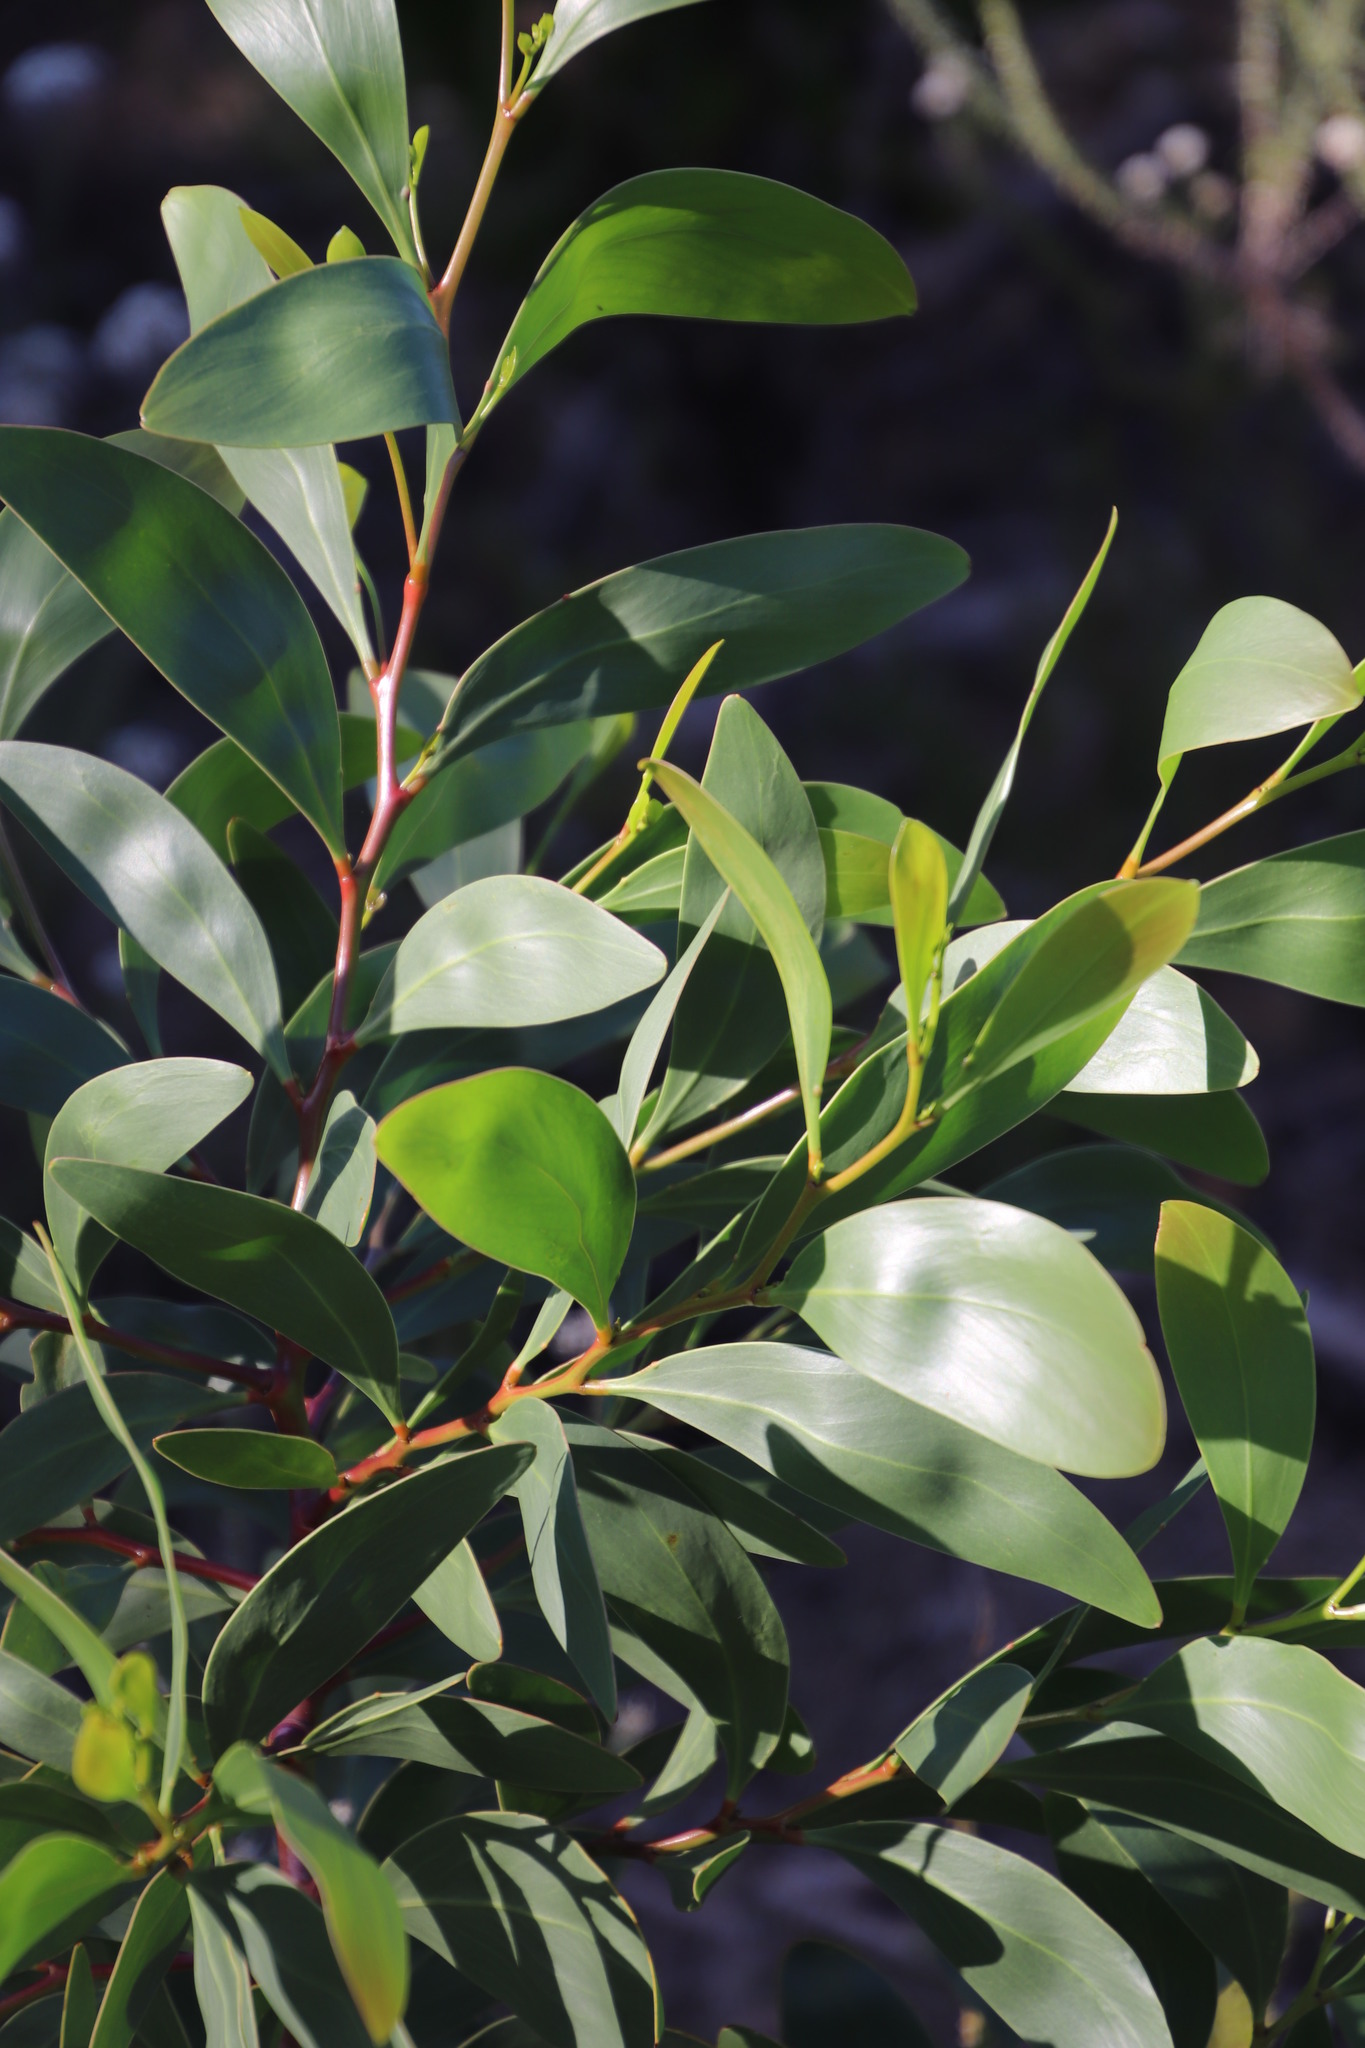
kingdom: Plantae
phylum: Tracheophyta
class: Magnoliopsida
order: Fabales
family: Fabaceae
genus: Acacia
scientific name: Acacia pycnantha
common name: Golden wattle
